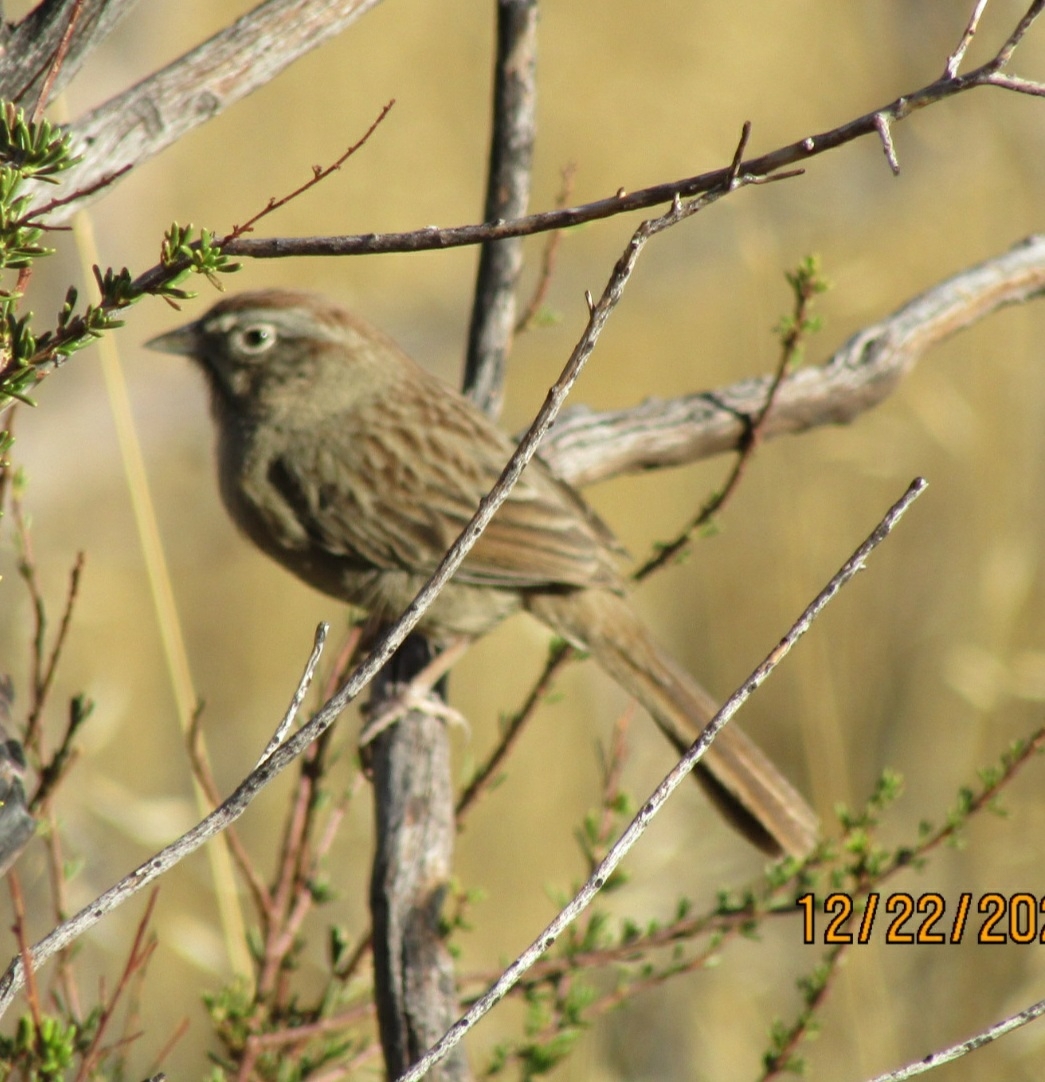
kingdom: Animalia
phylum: Chordata
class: Aves
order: Passeriformes
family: Passerellidae
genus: Aimophila
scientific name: Aimophila ruficeps
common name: Rufous-crowned sparrow
